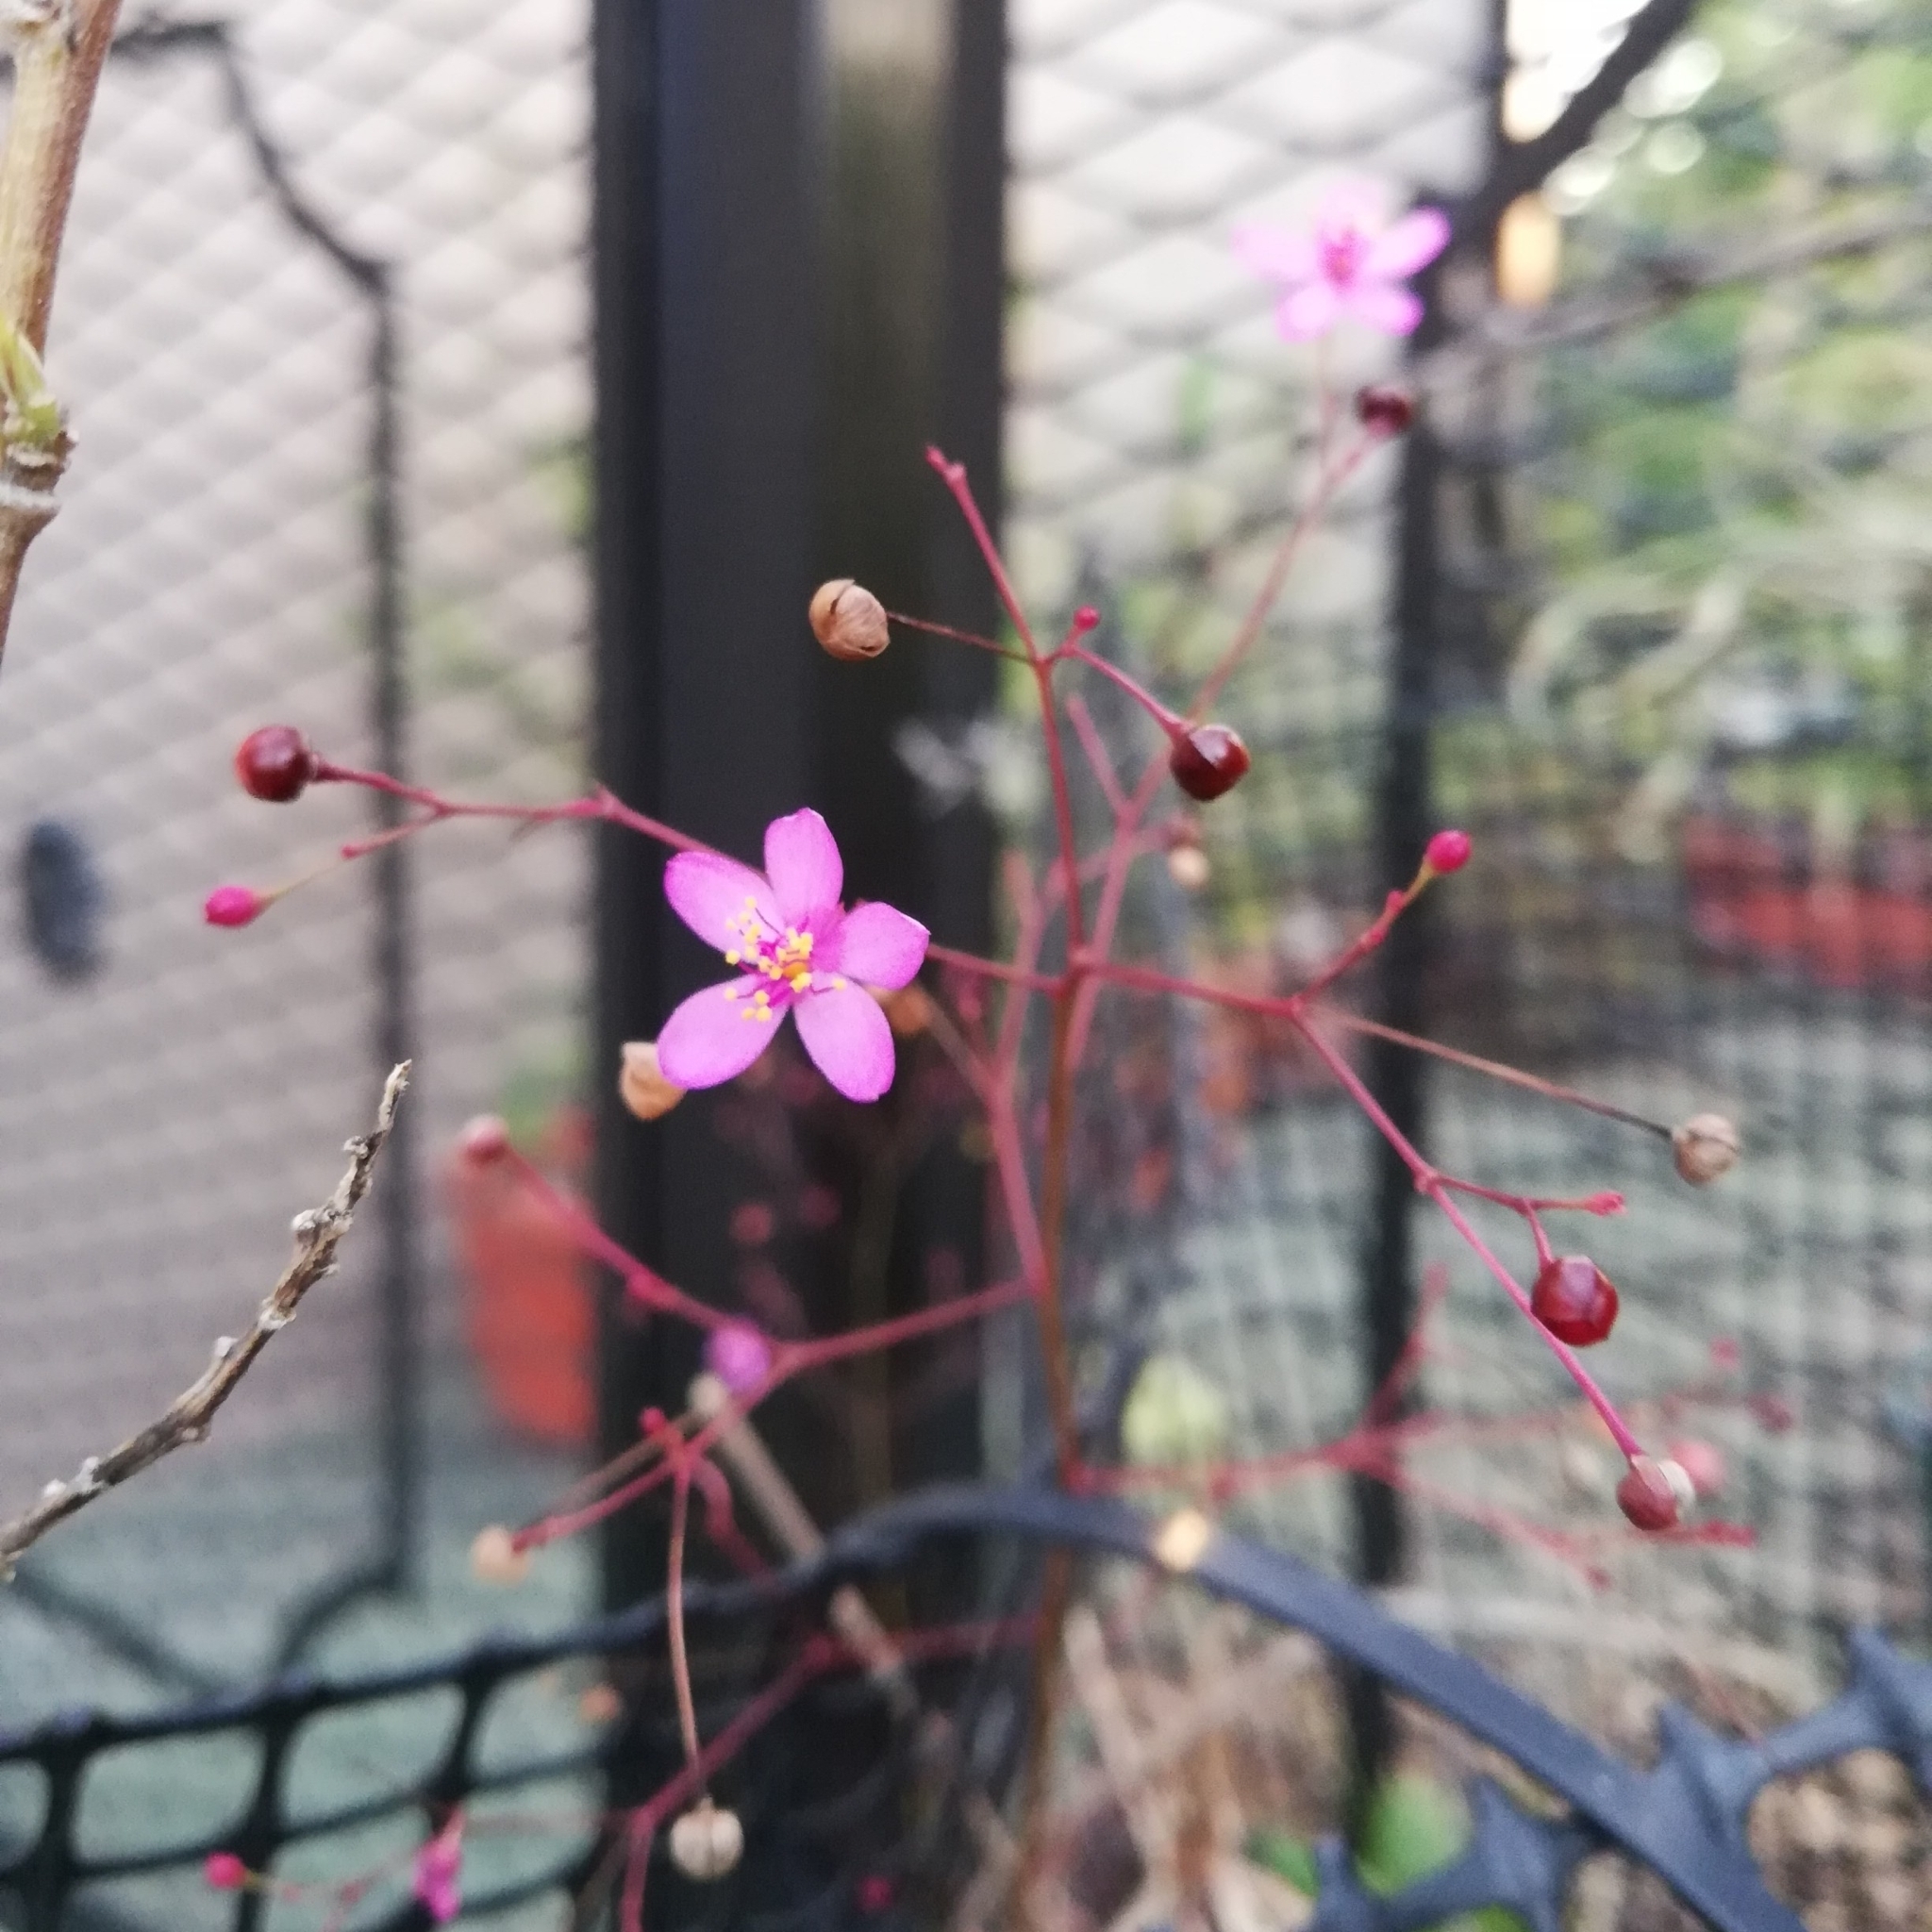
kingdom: Plantae
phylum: Tracheophyta
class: Magnoliopsida
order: Caryophyllales
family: Talinaceae
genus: Talinum
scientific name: Talinum paniculatum
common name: Jewels of opar
